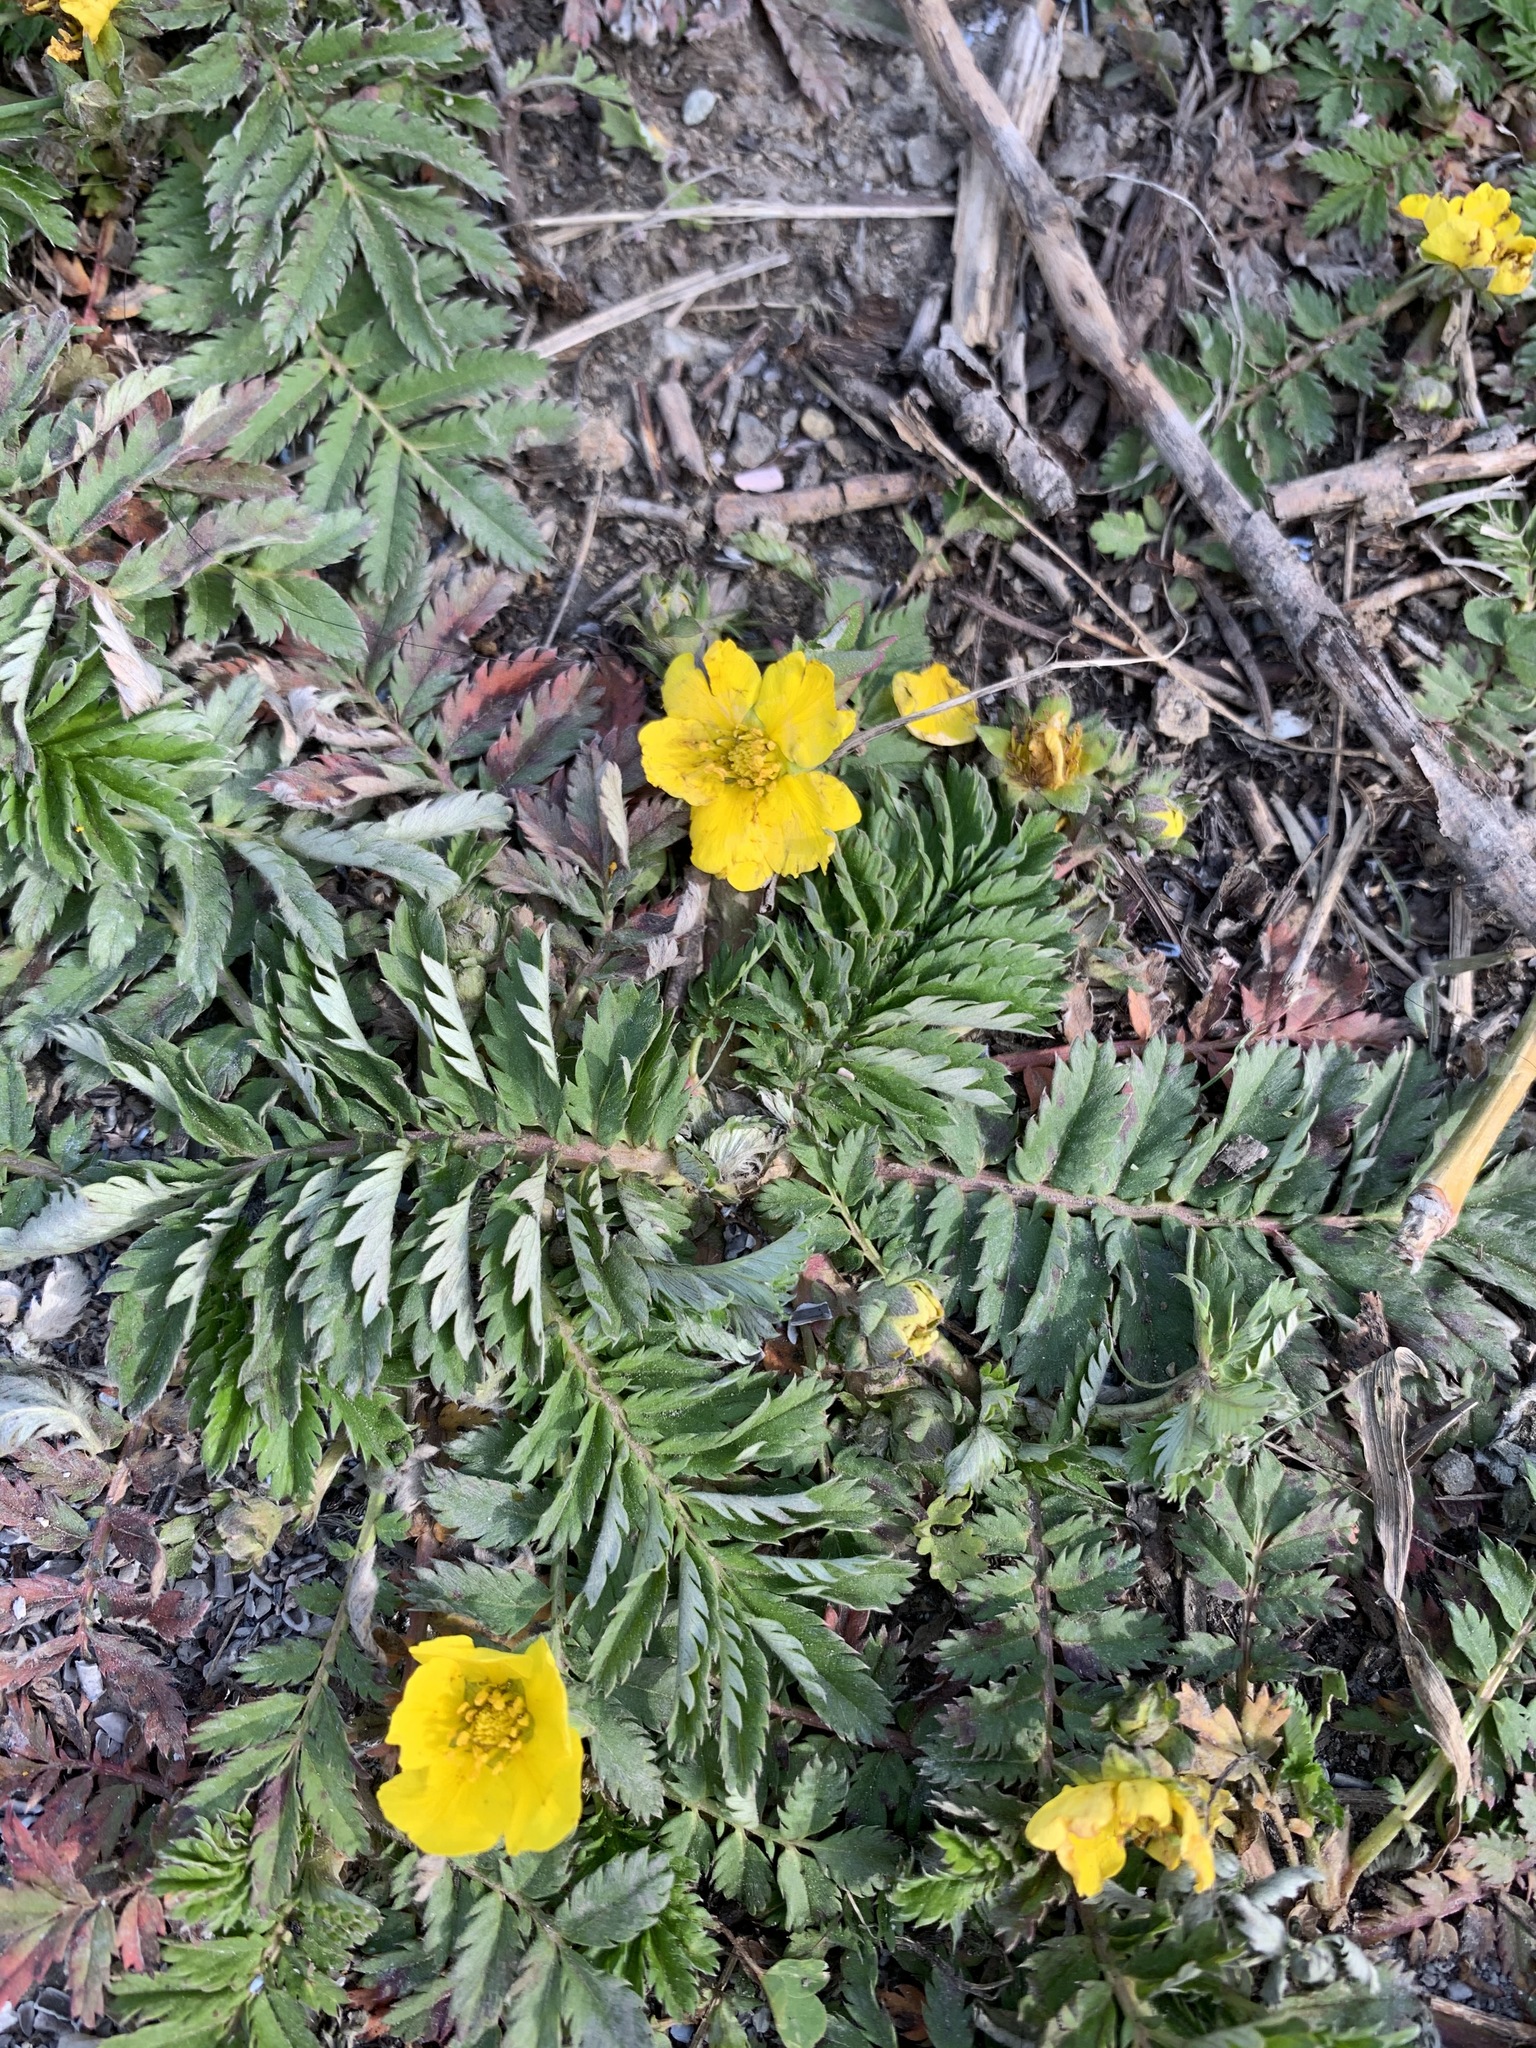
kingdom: Plantae
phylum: Tracheophyta
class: Magnoliopsida
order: Rosales
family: Rosaceae
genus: Argentina
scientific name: Argentina anserina
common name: Common silverweed
